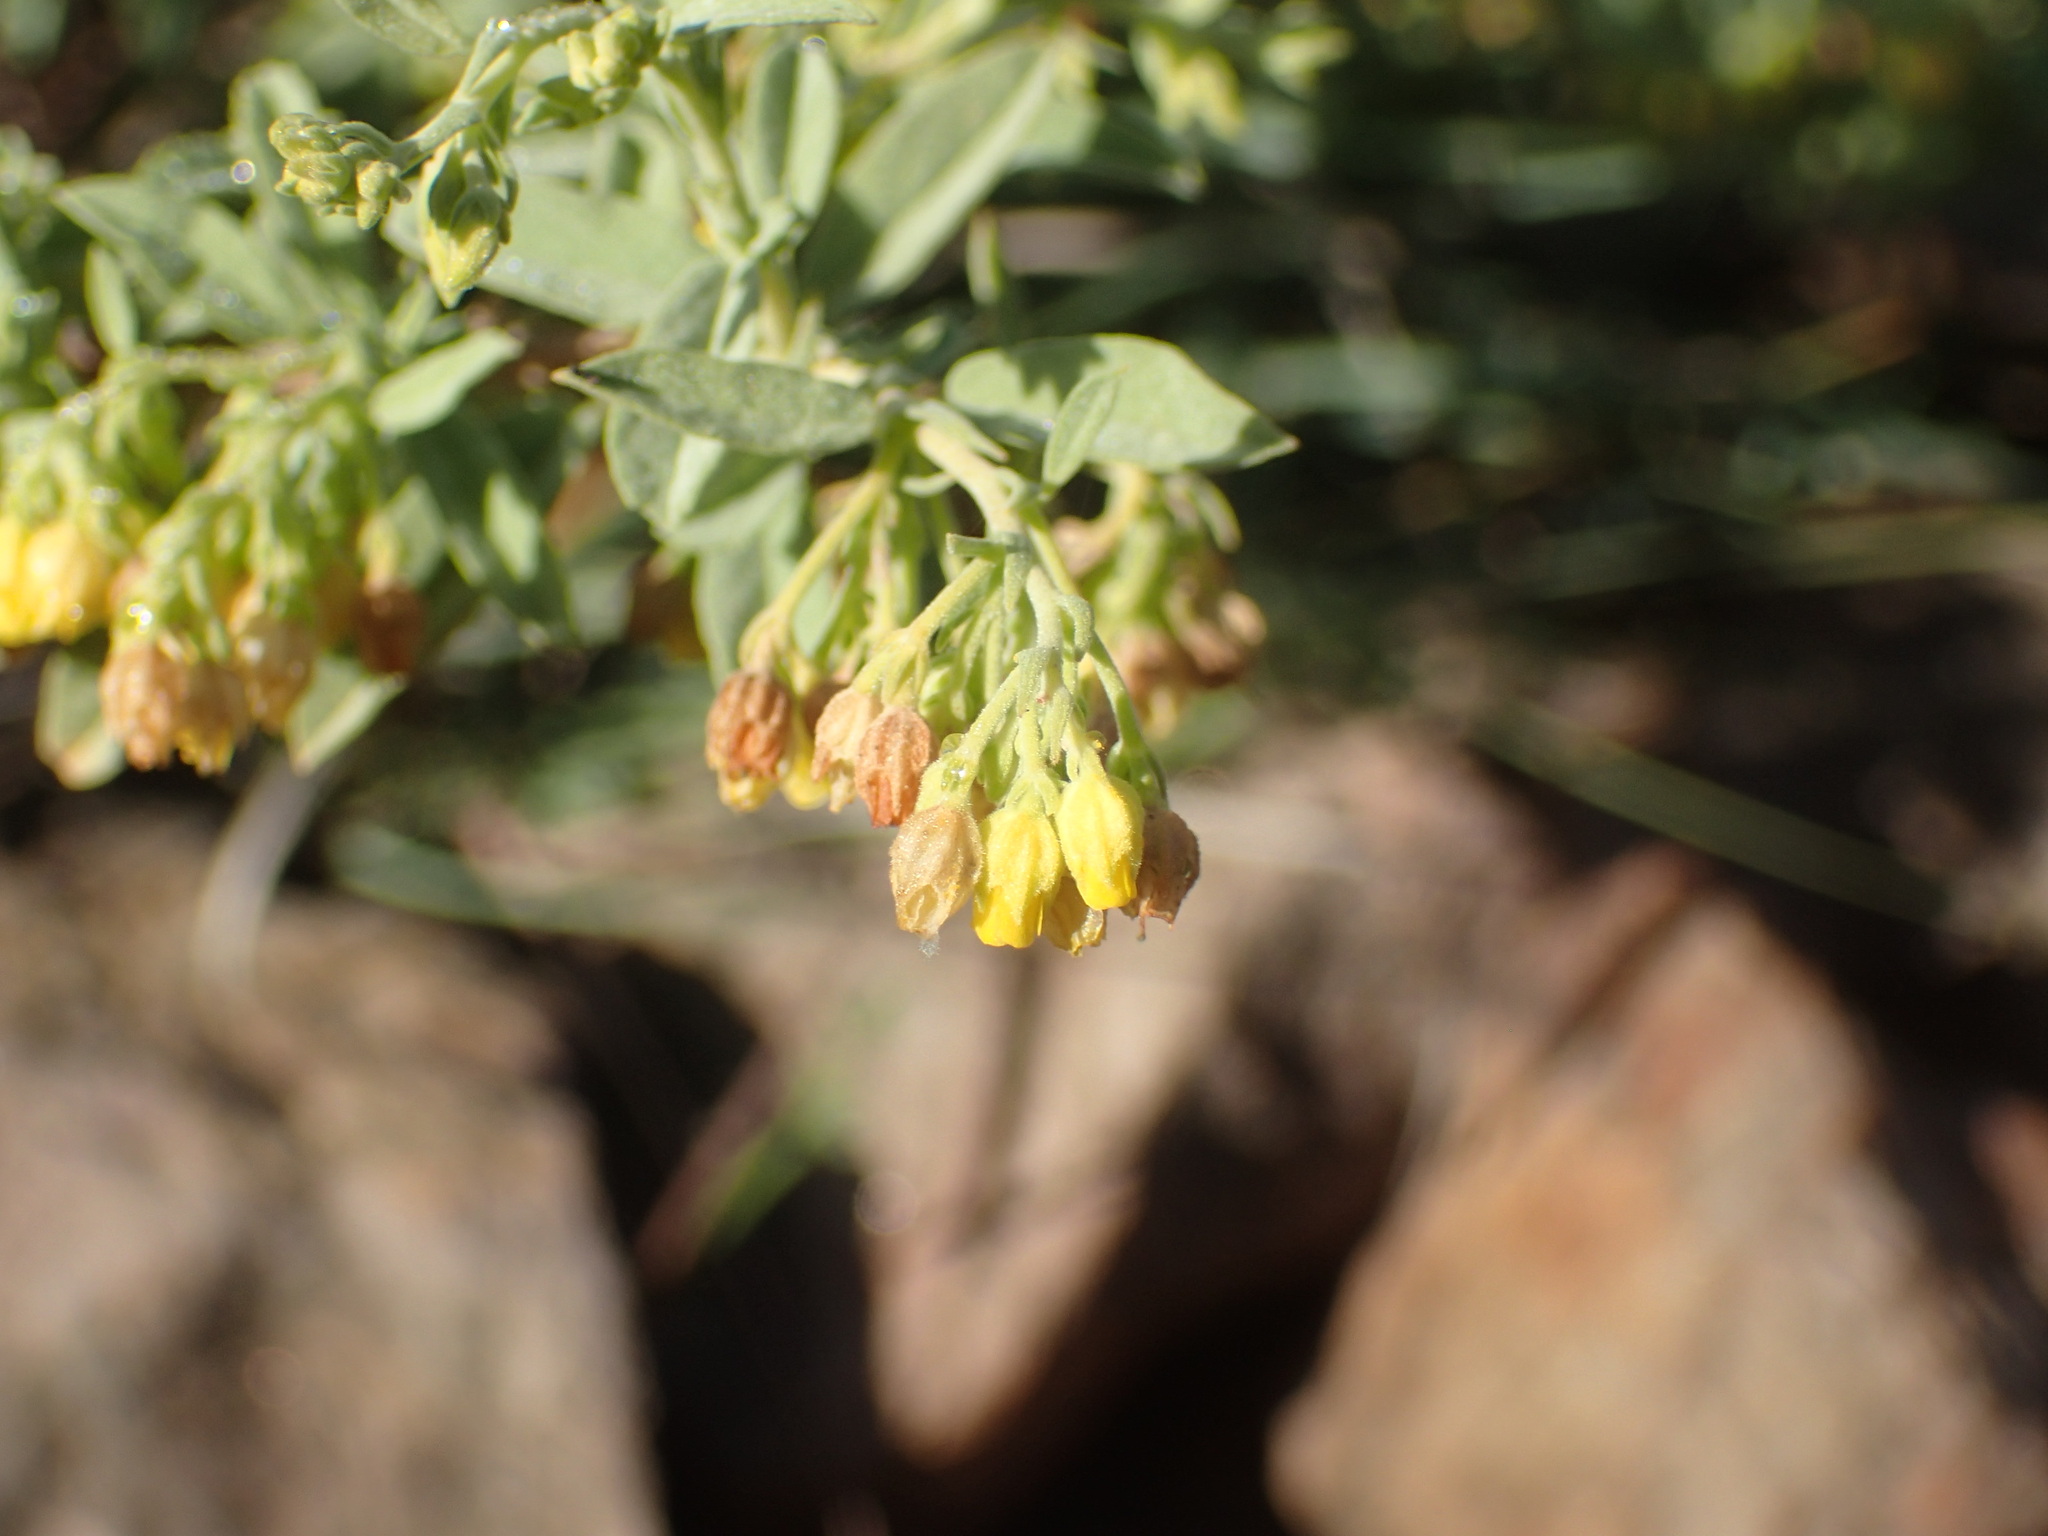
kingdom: Plantae
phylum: Tracheophyta
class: Magnoliopsida
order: Malvales
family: Malvaceae
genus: Hermannia
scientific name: Hermannia holosericea
